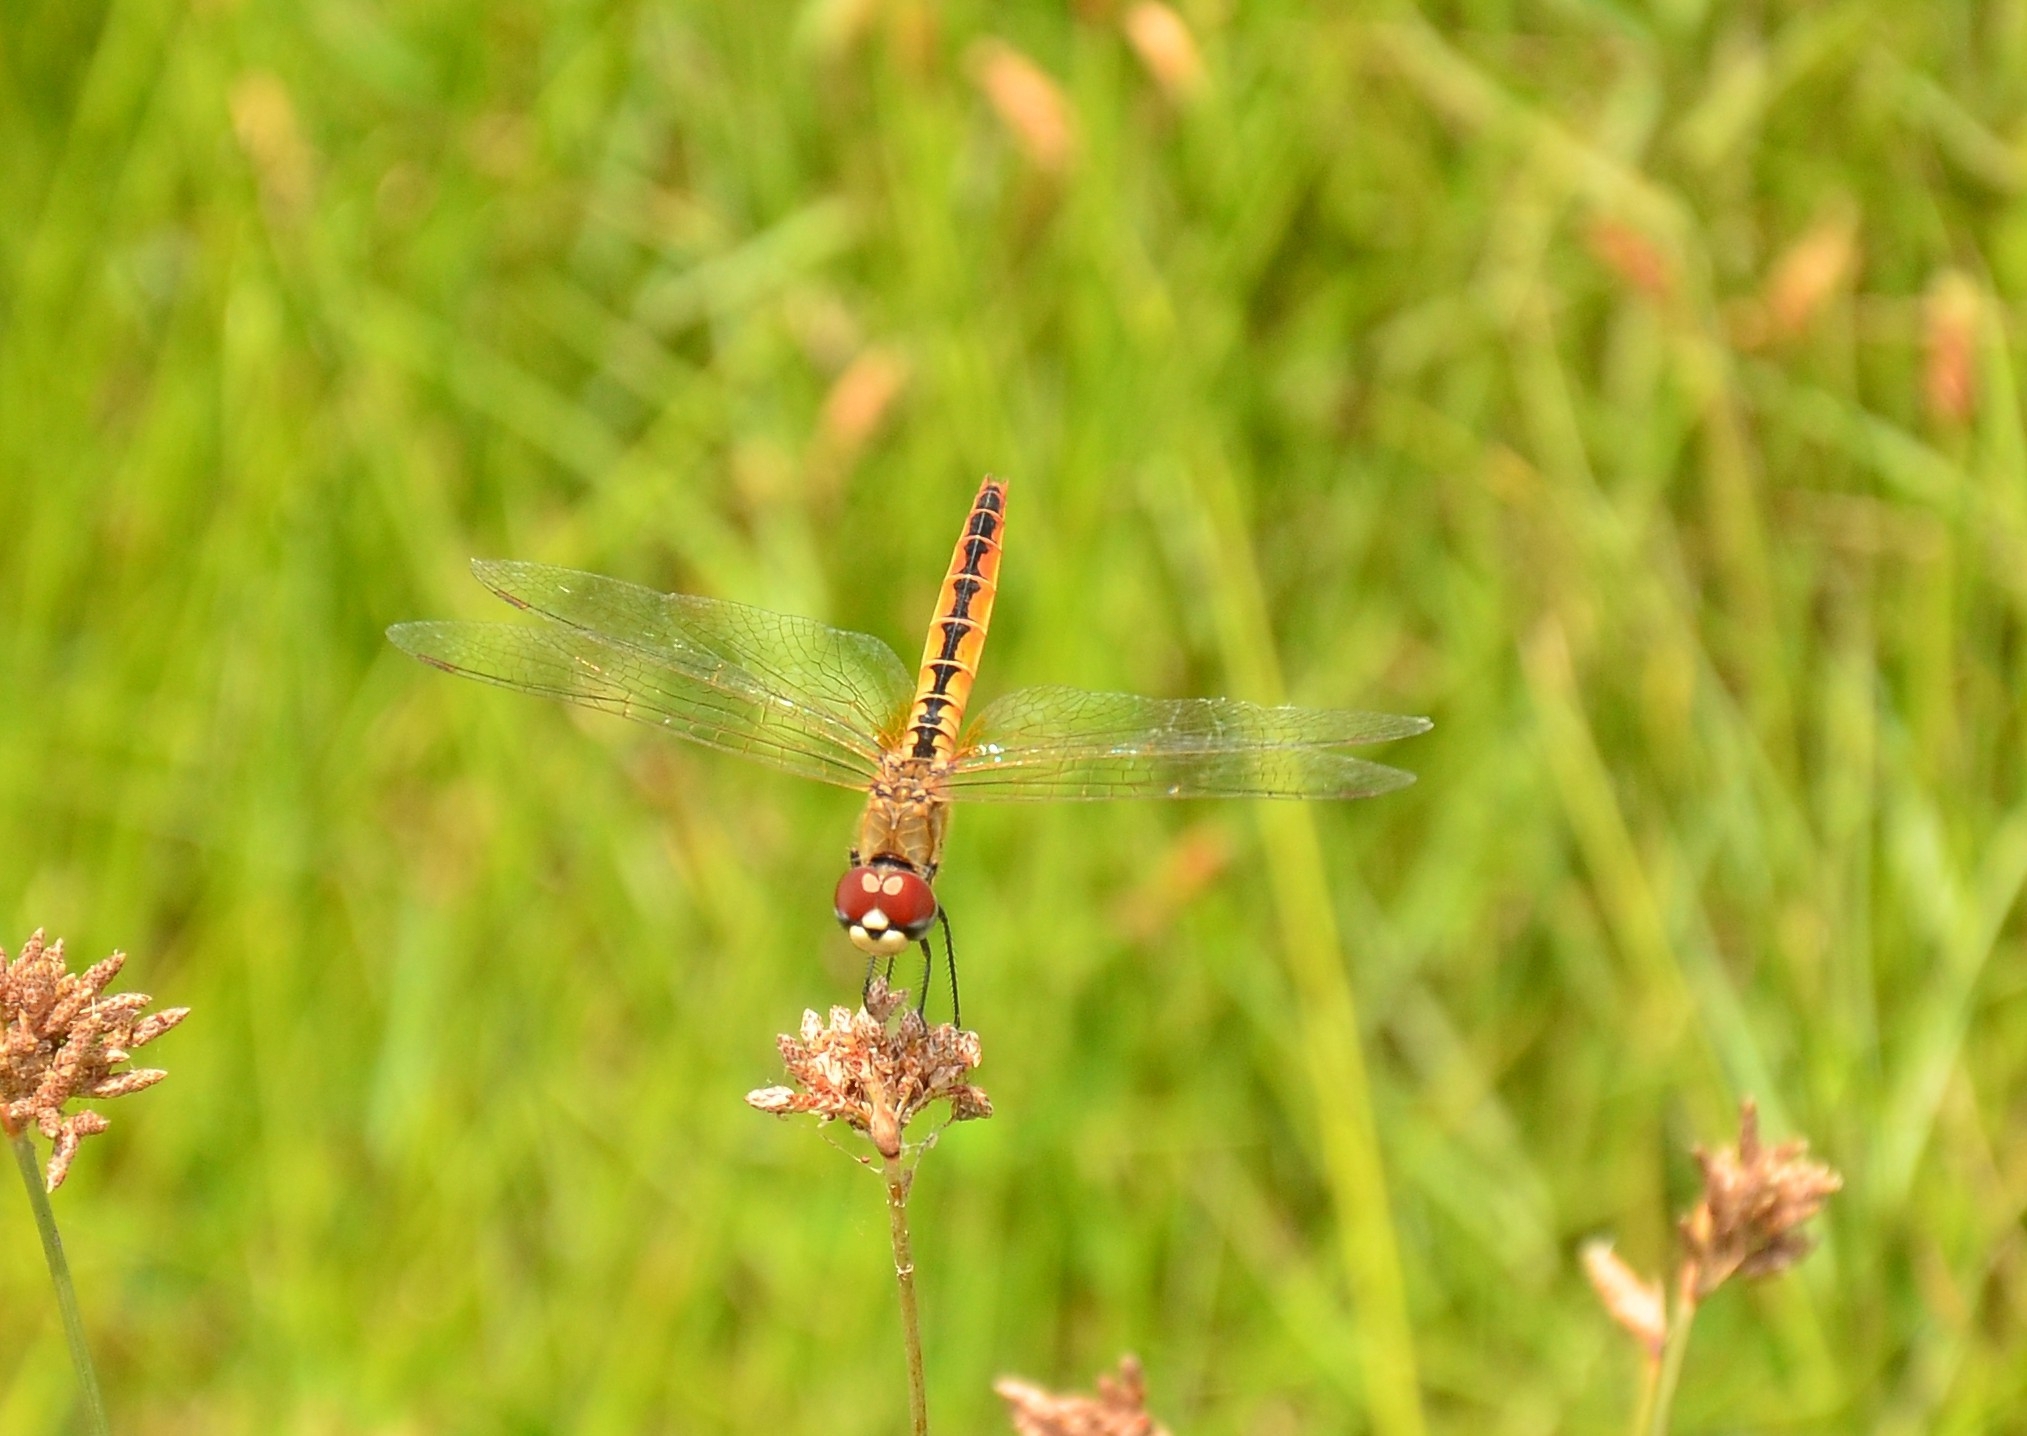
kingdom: Animalia
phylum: Arthropoda
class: Insecta
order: Odonata
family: Libellulidae
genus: Macrodiplax
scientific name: Macrodiplax cora
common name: Coastal glider
